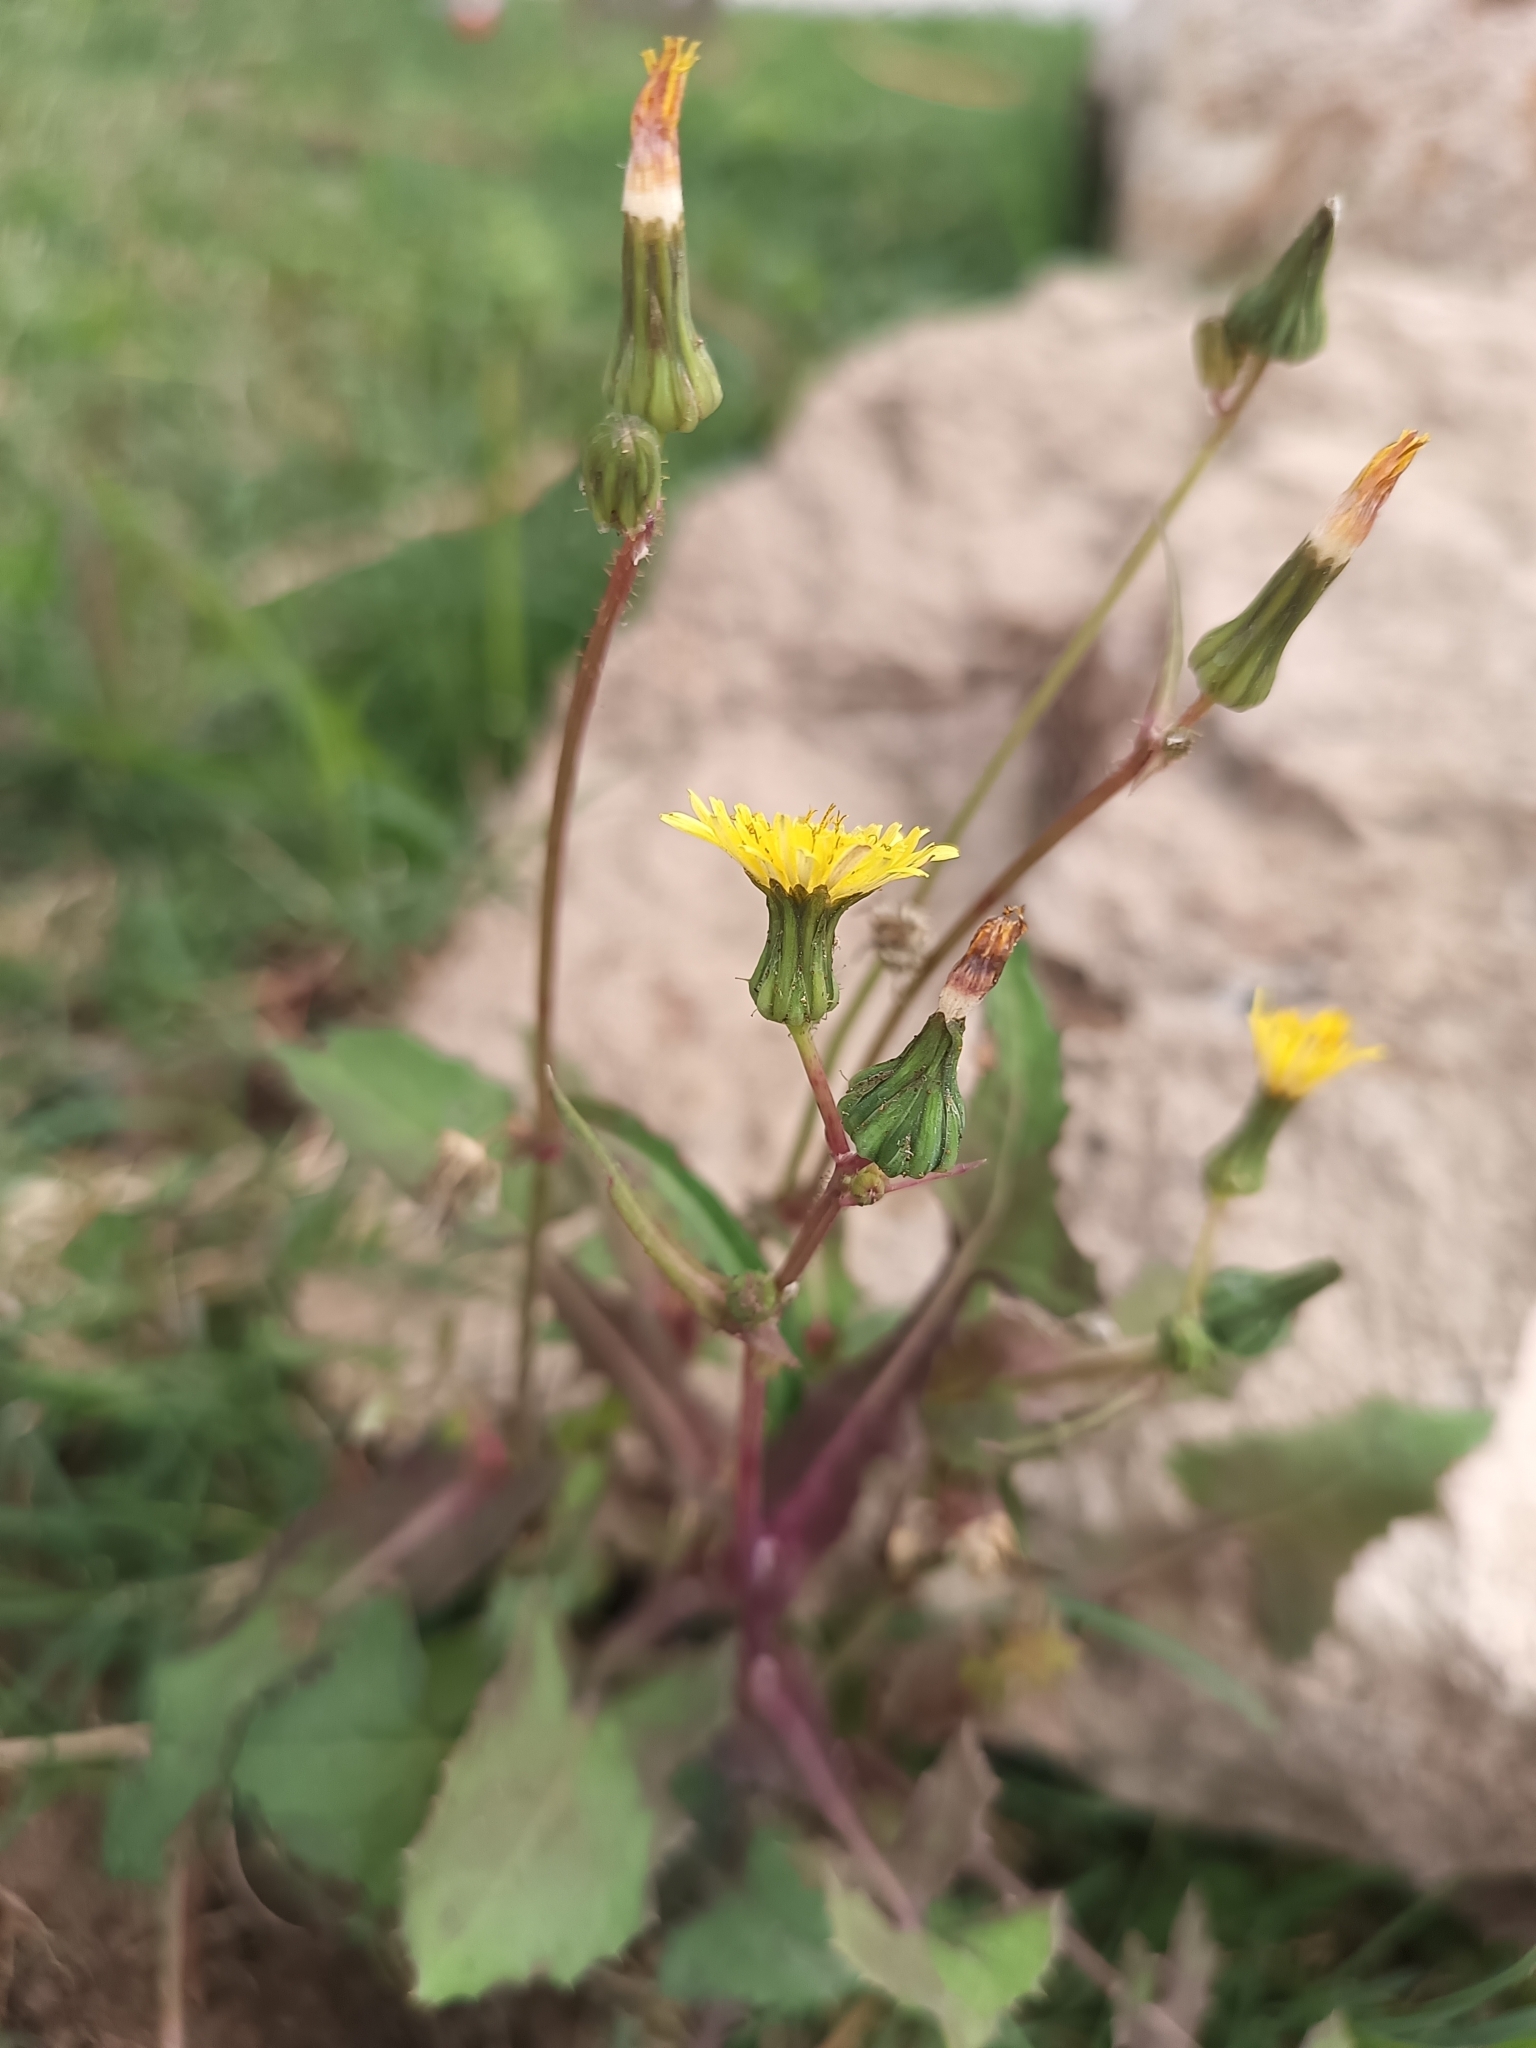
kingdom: Plantae
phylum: Tracheophyta
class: Magnoliopsida
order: Asterales
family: Asteraceae
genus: Sonchus
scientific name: Sonchus oleraceus
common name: Common sowthistle
